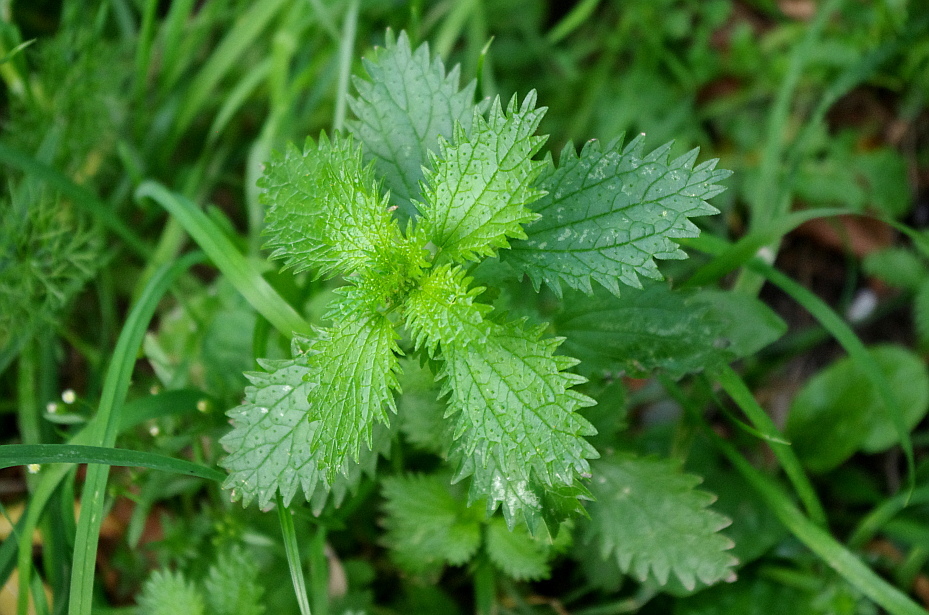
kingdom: Plantae
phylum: Tracheophyta
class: Magnoliopsida
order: Rosales
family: Urticaceae
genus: Urtica
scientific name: Urtica urens
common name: Dwarf nettle
